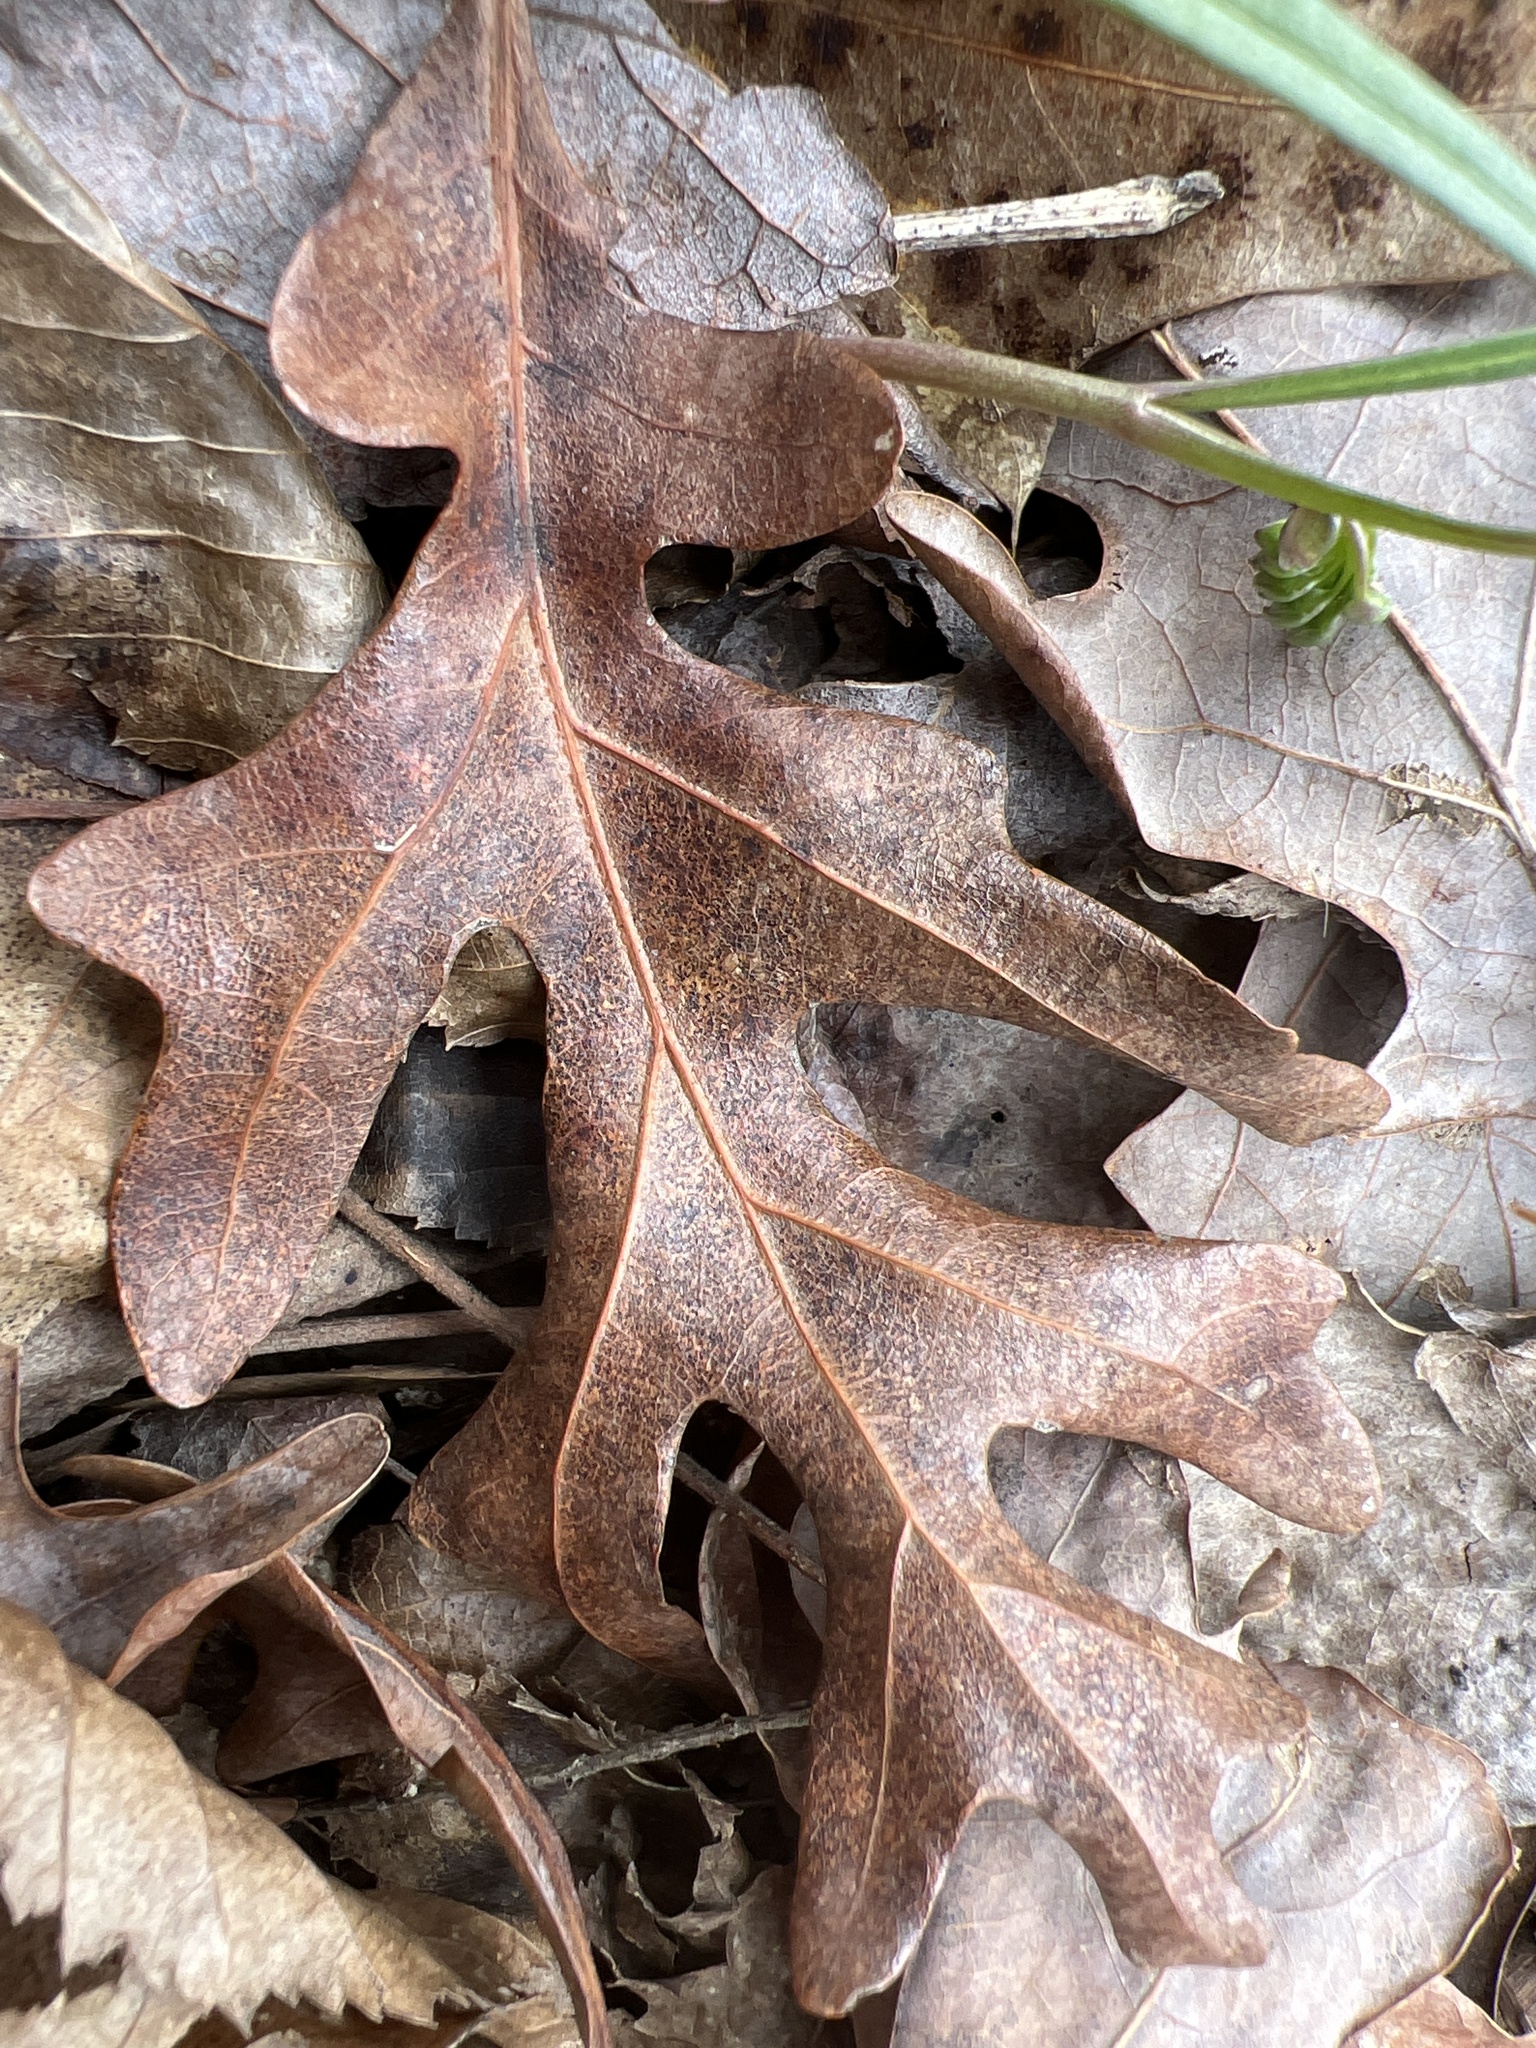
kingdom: Plantae
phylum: Tracheophyta
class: Magnoliopsida
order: Fagales
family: Fagaceae
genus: Quercus
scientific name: Quercus alba
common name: White oak
